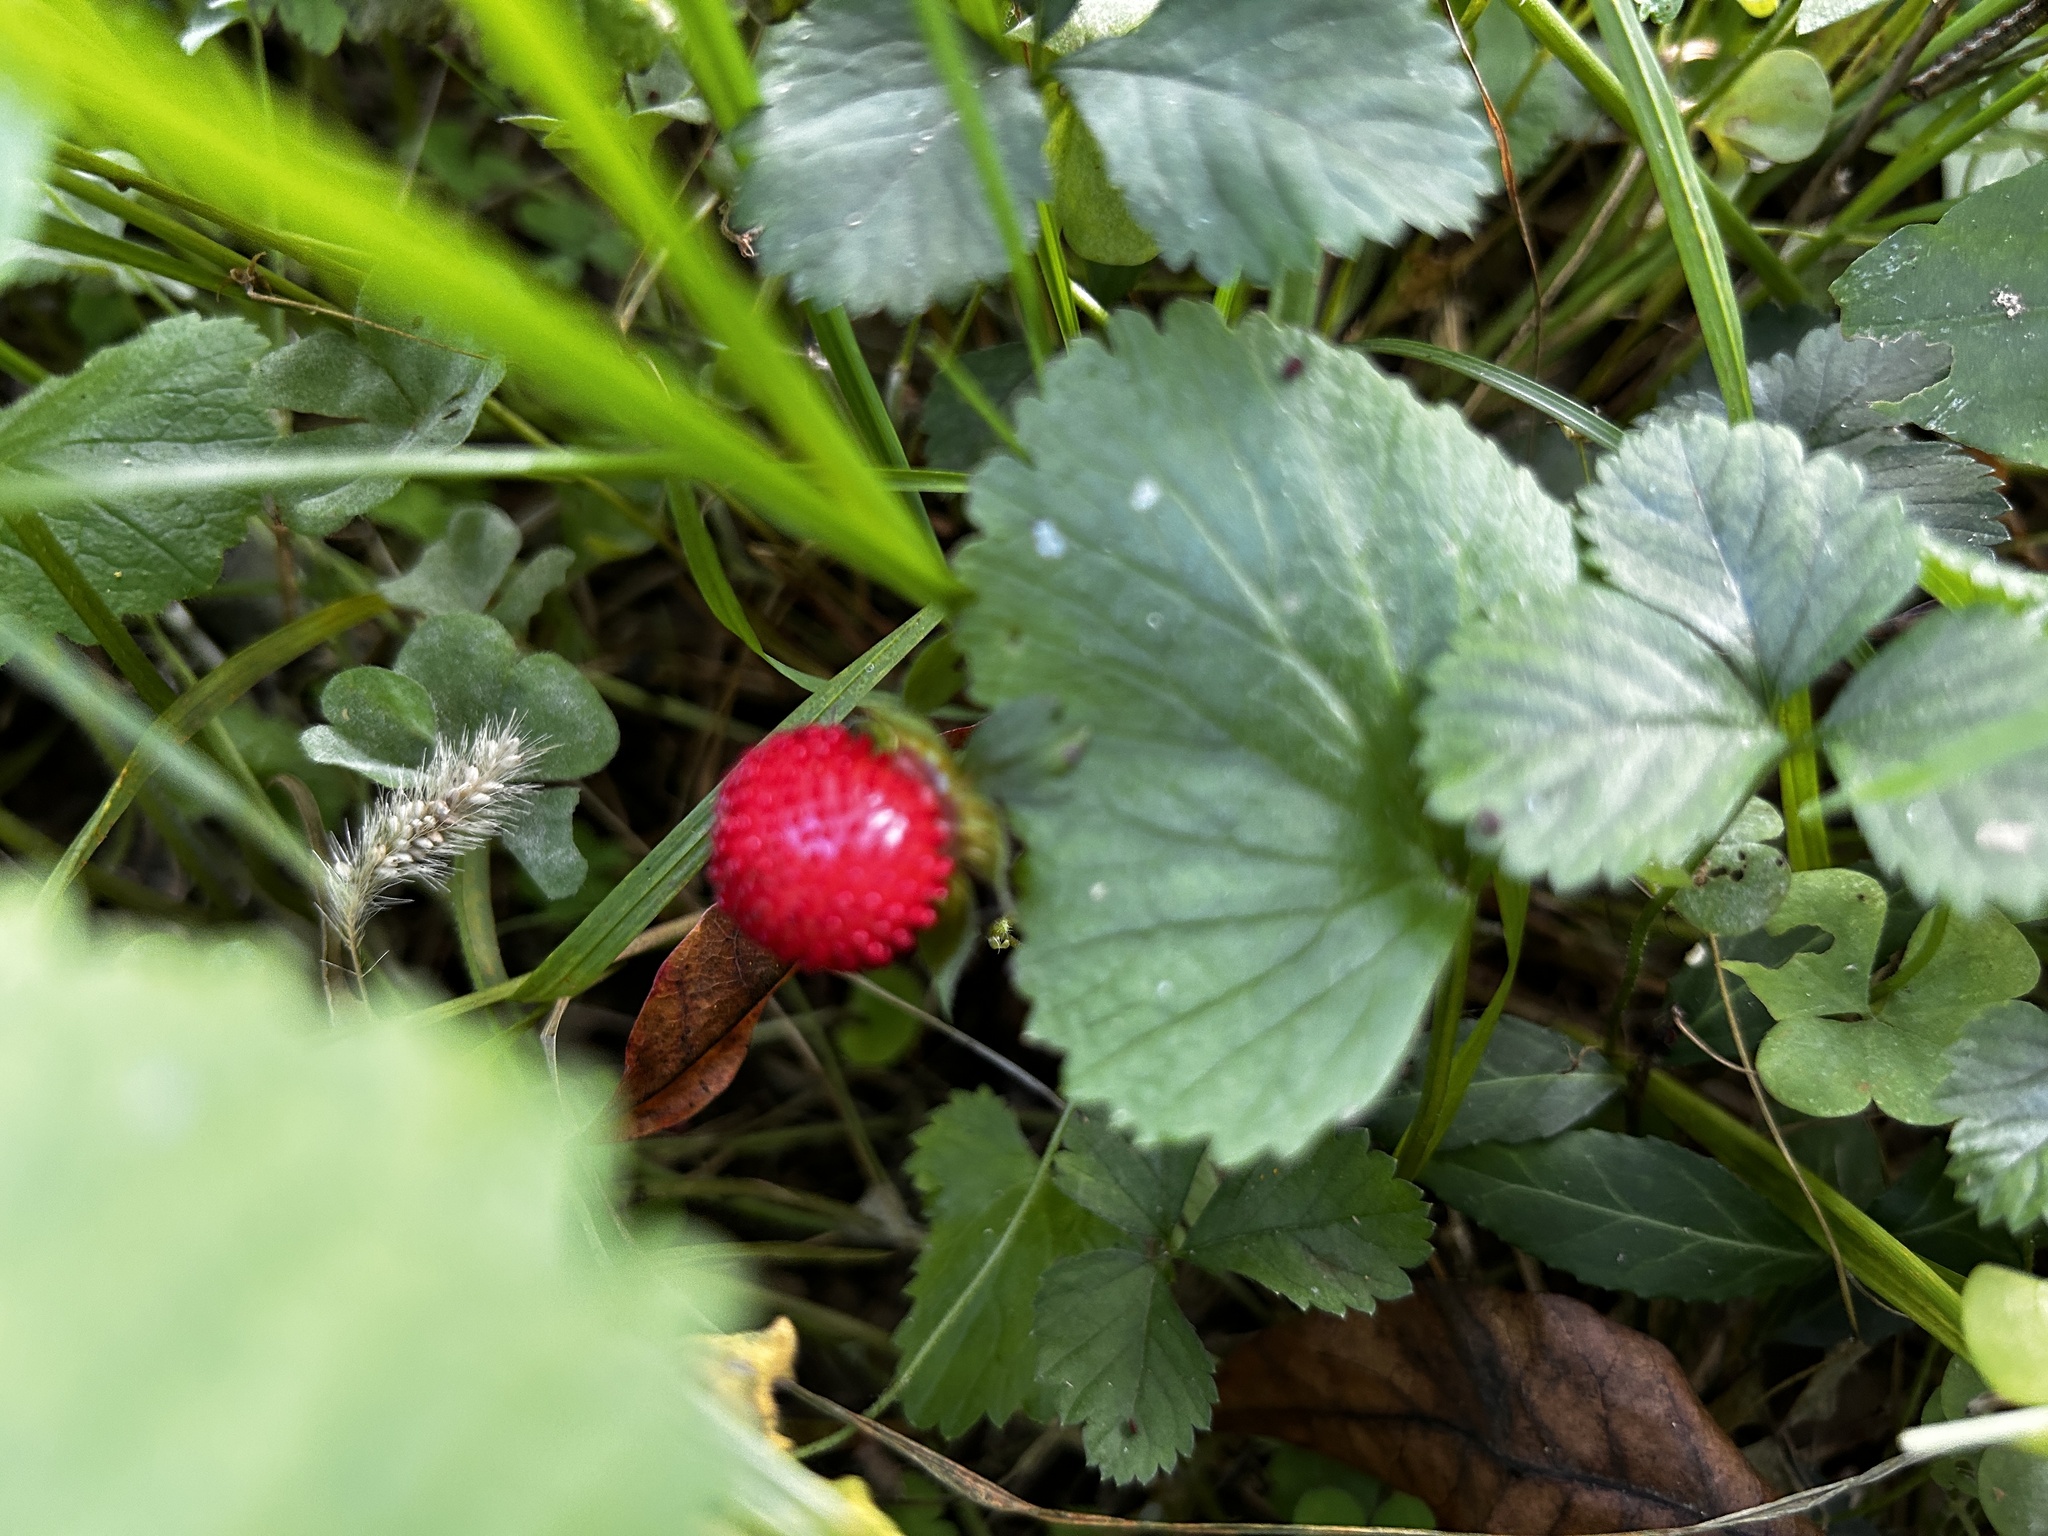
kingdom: Plantae
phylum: Tracheophyta
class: Magnoliopsida
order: Rosales
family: Rosaceae
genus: Potentilla
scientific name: Potentilla indica
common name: Yellow-flowered strawberry
